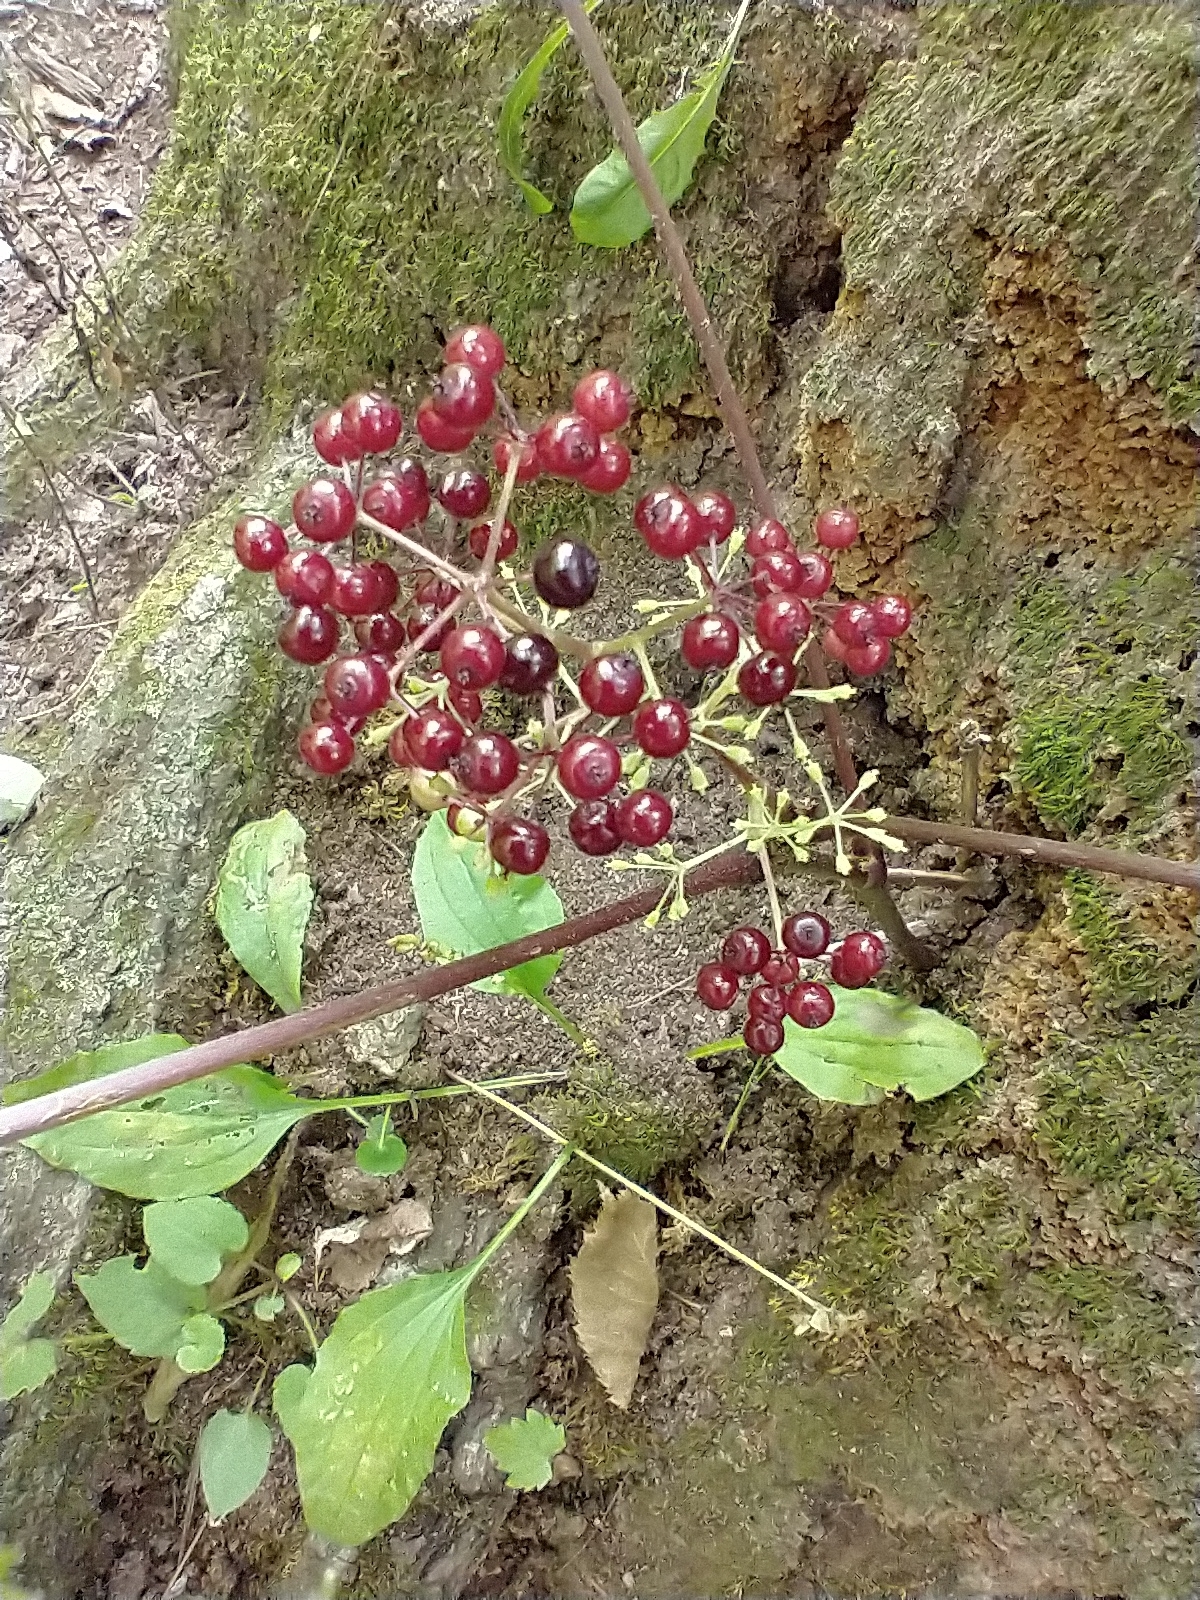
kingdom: Plantae
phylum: Tracheophyta
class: Magnoliopsida
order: Apiales
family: Araliaceae
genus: Aralia
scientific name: Aralia racemosa
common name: American-spikenard
